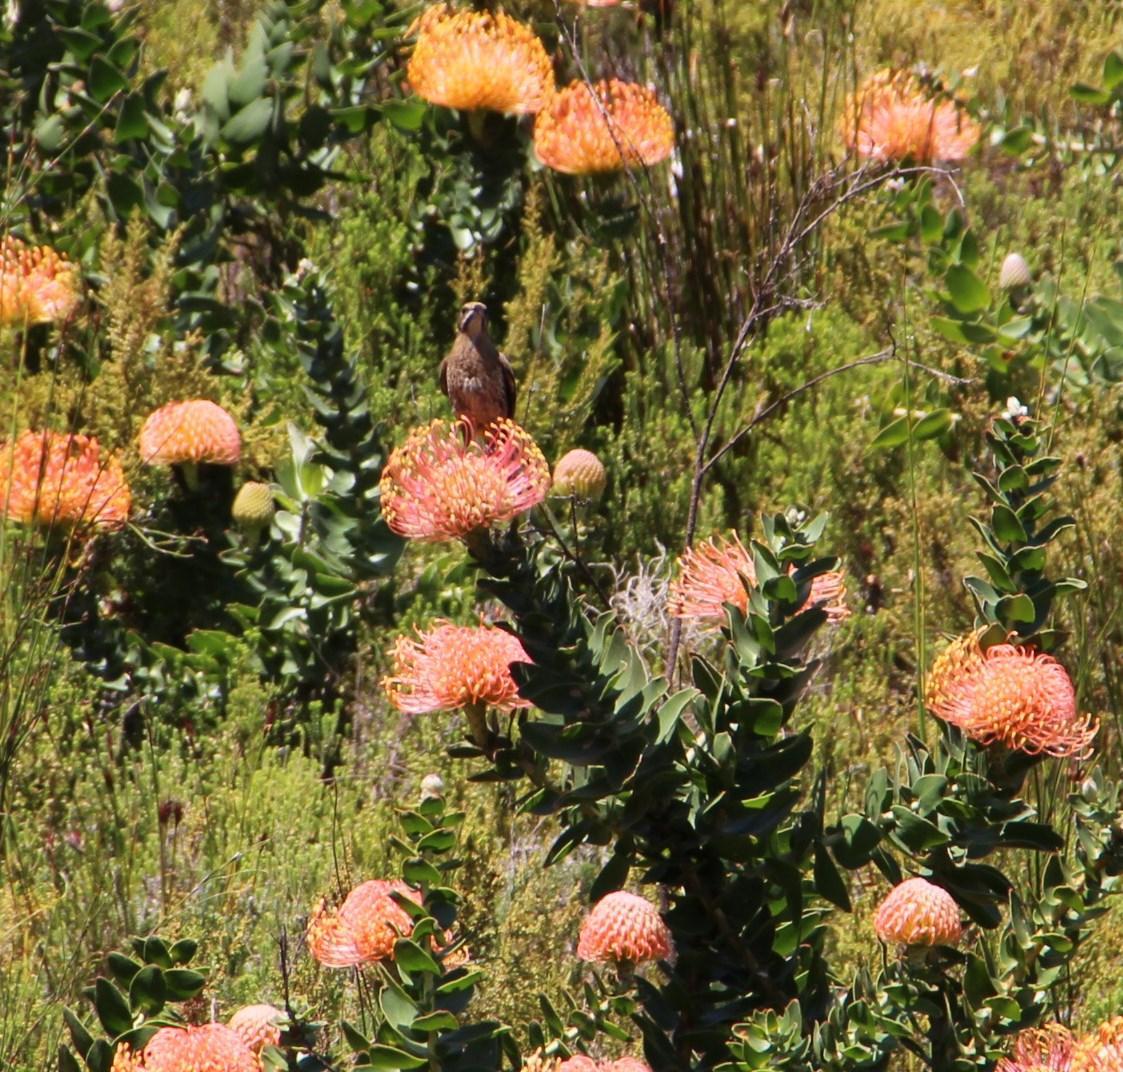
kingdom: Animalia
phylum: Chordata
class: Aves
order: Passeriformes
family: Promeropidae
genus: Promerops
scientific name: Promerops cafer
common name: Cape sugarbird
